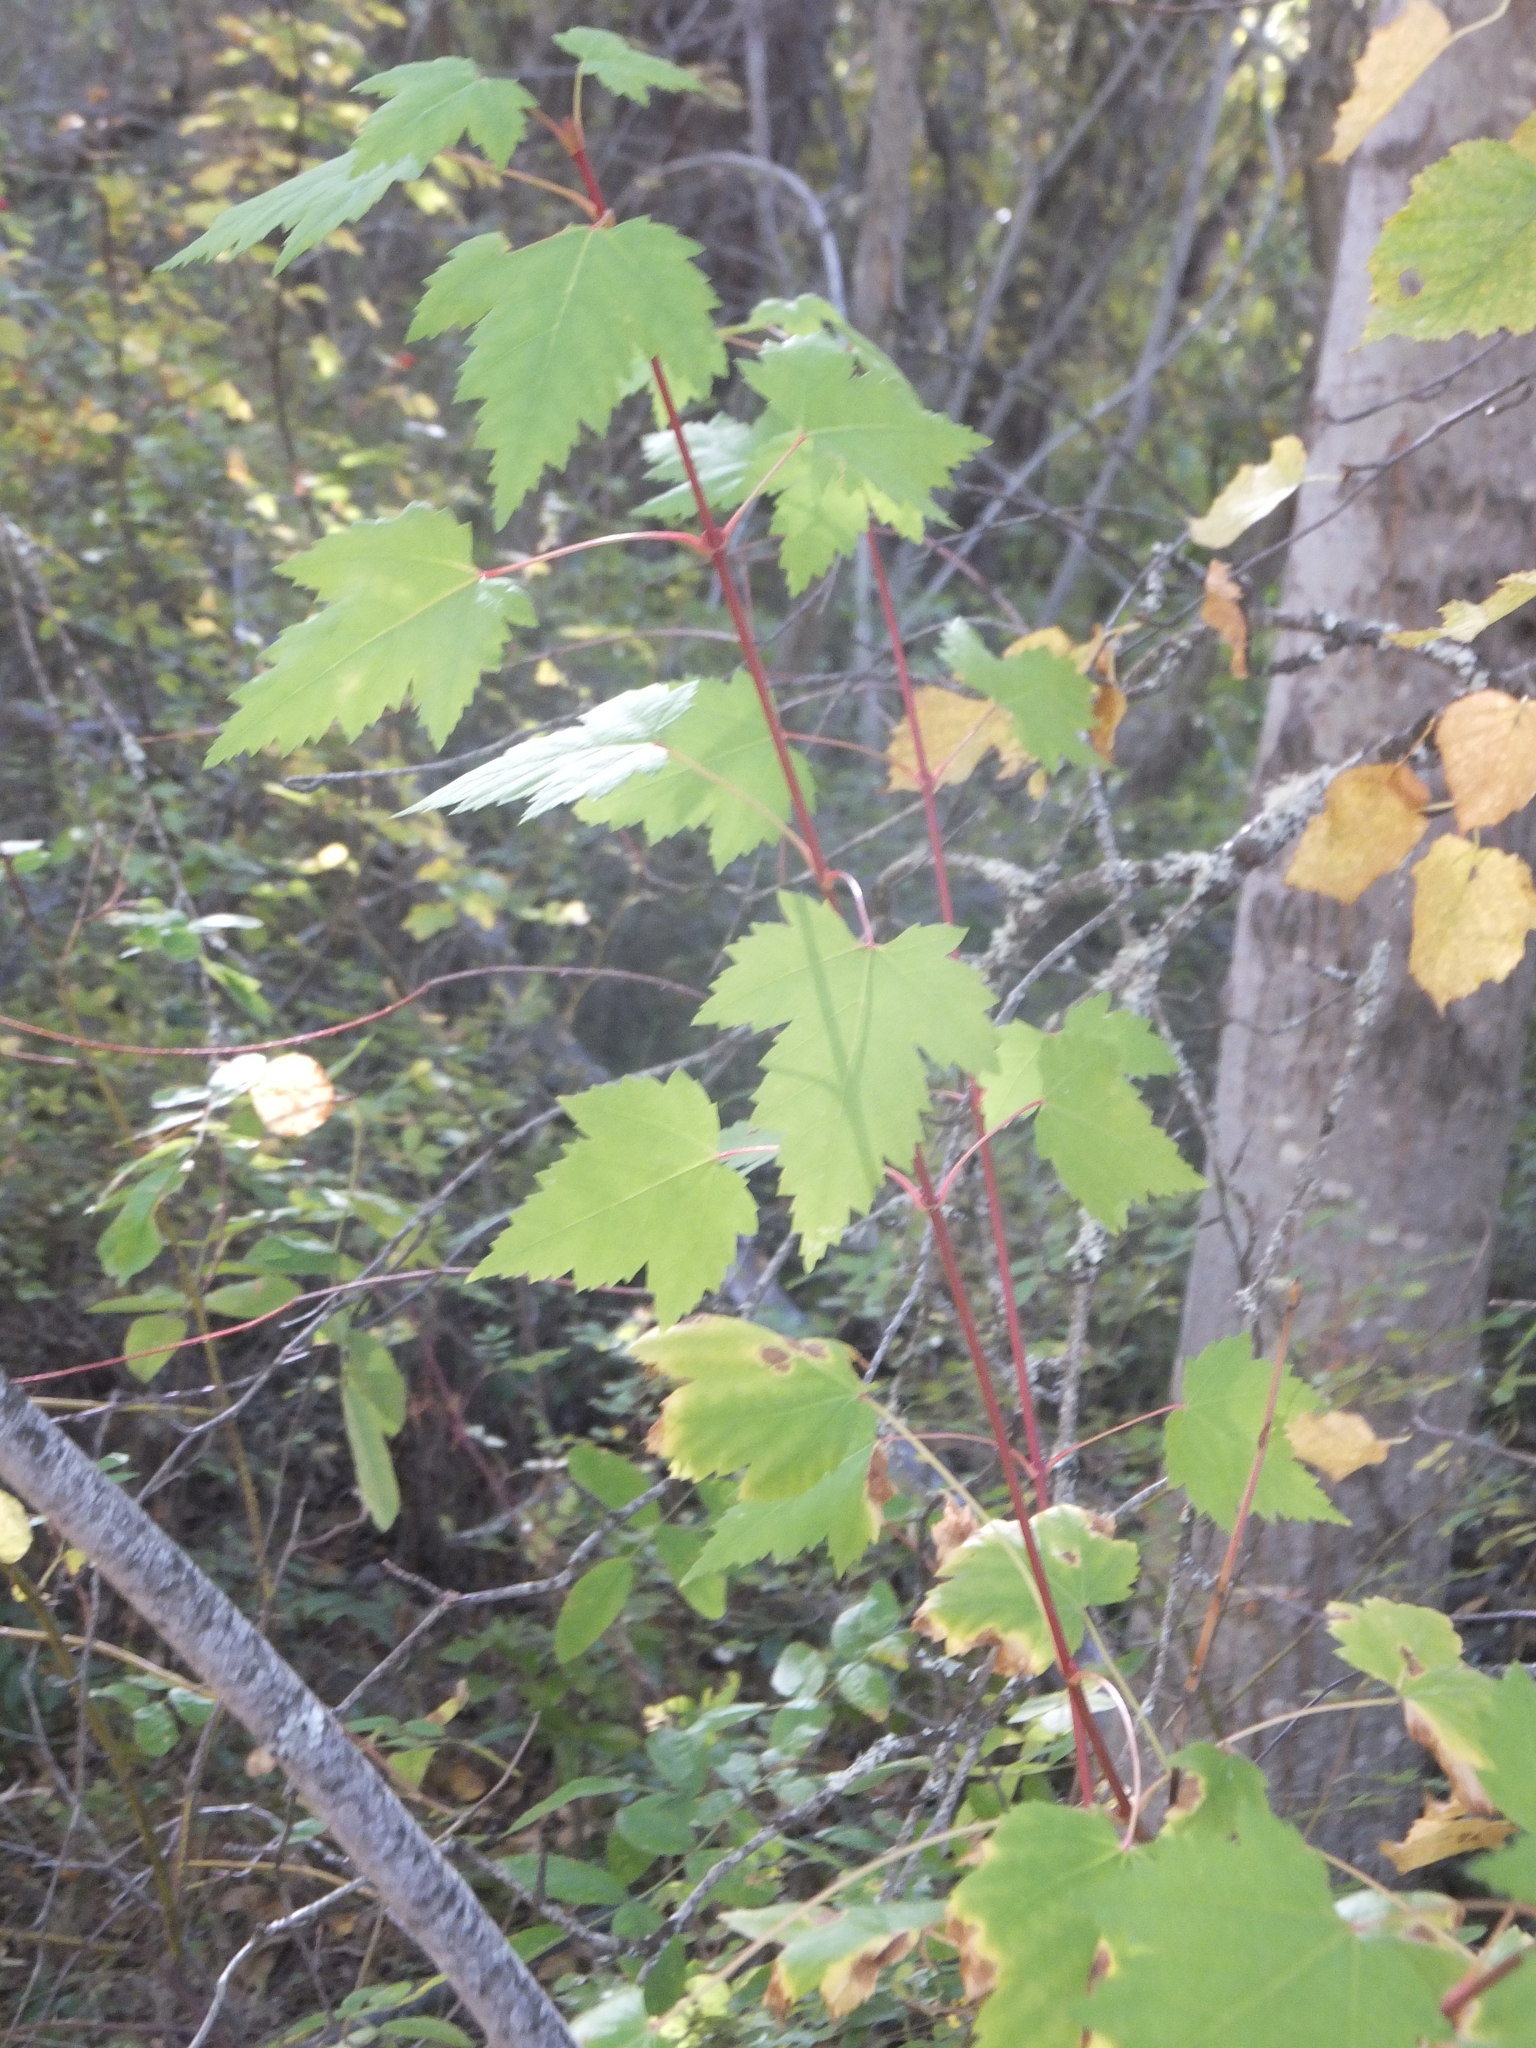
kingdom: Plantae
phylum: Tracheophyta
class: Magnoliopsida
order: Sapindales
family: Sapindaceae
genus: Acer
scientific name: Acer glabrum
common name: Rocky mountain maple
